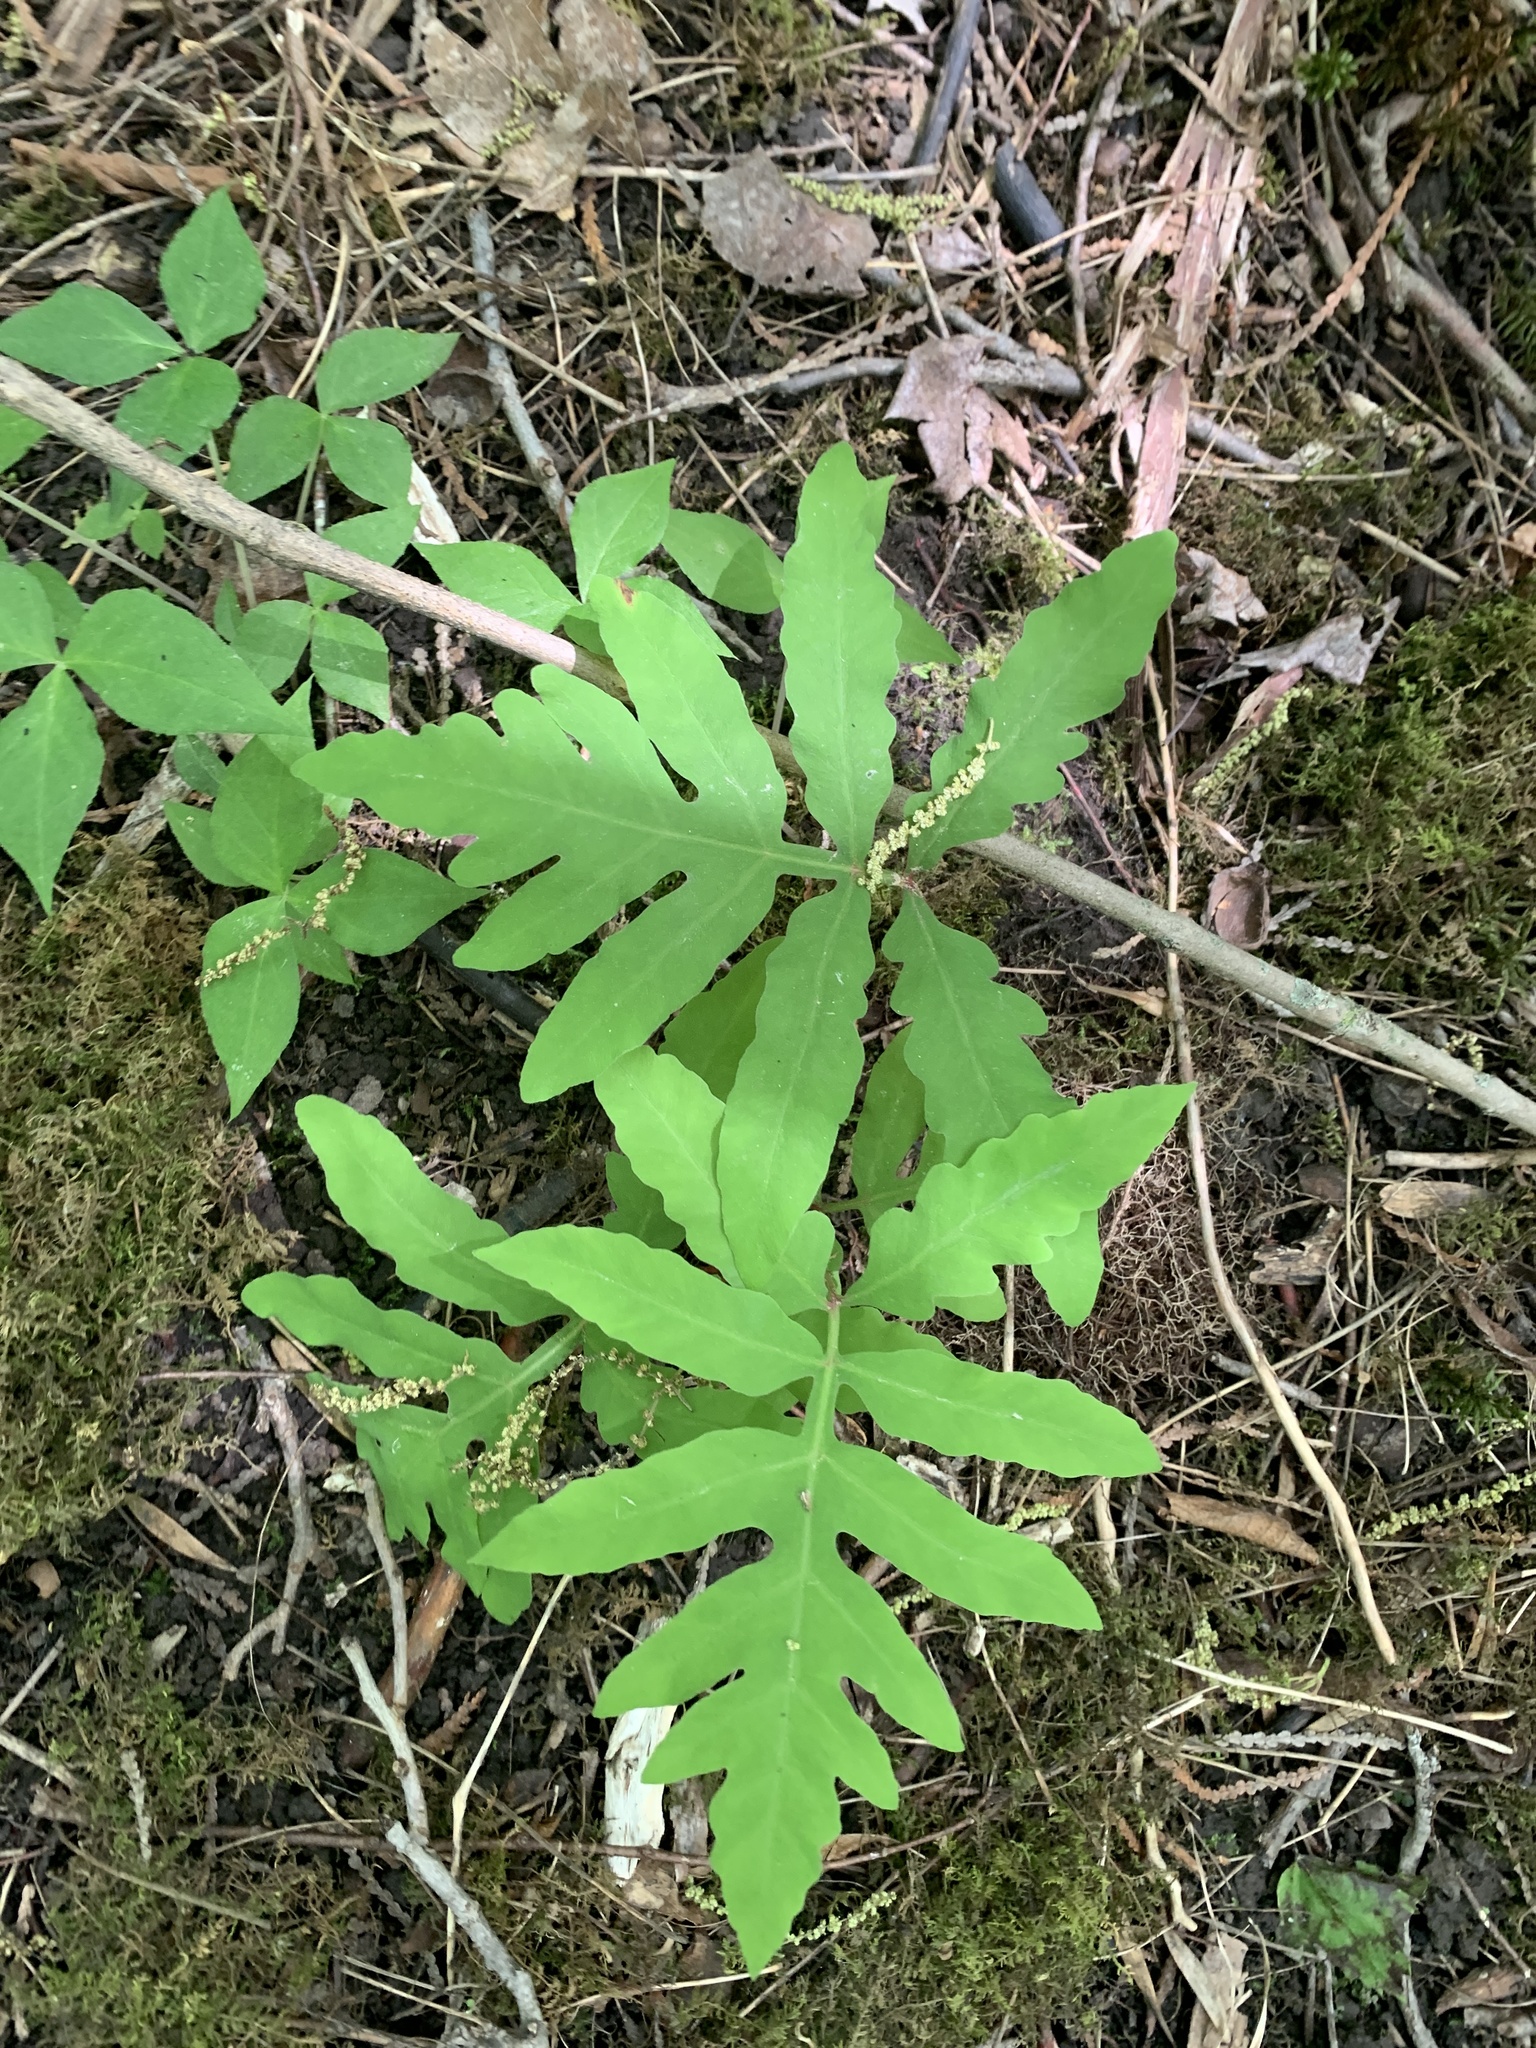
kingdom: Plantae
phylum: Tracheophyta
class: Polypodiopsida
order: Polypodiales
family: Onocleaceae
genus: Onoclea
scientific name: Onoclea sensibilis
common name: Sensitive fern
